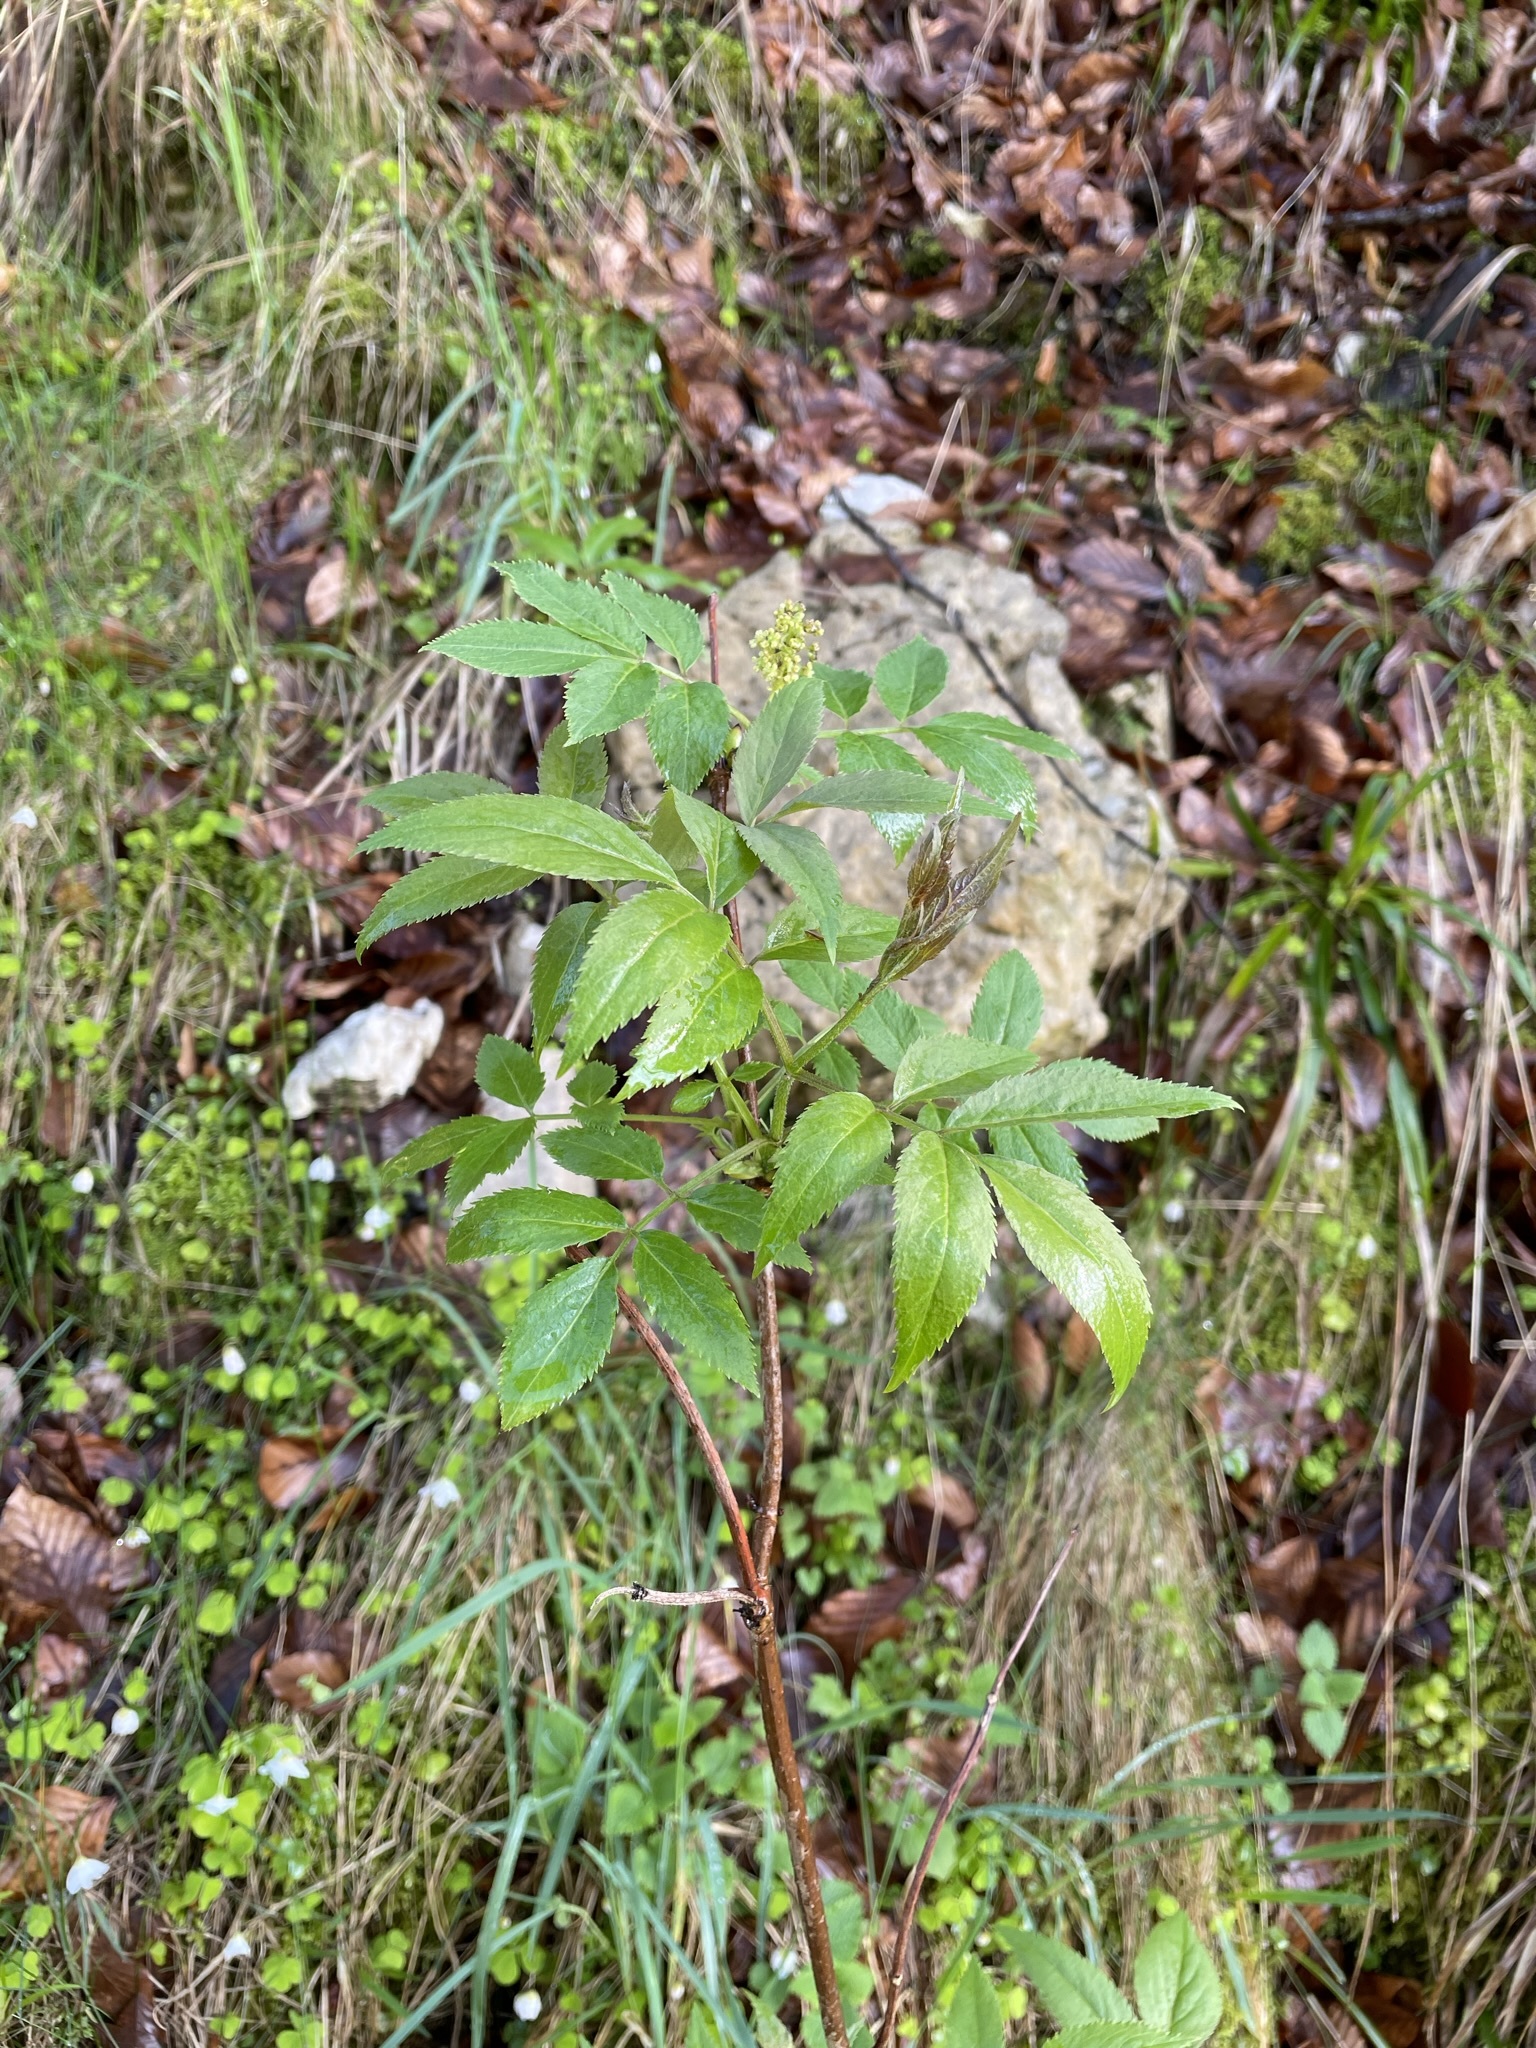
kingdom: Plantae
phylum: Tracheophyta
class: Magnoliopsida
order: Dipsacales
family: Viburnaceae
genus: Sambucus
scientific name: Sambucus racemosa
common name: Red-berried elder
